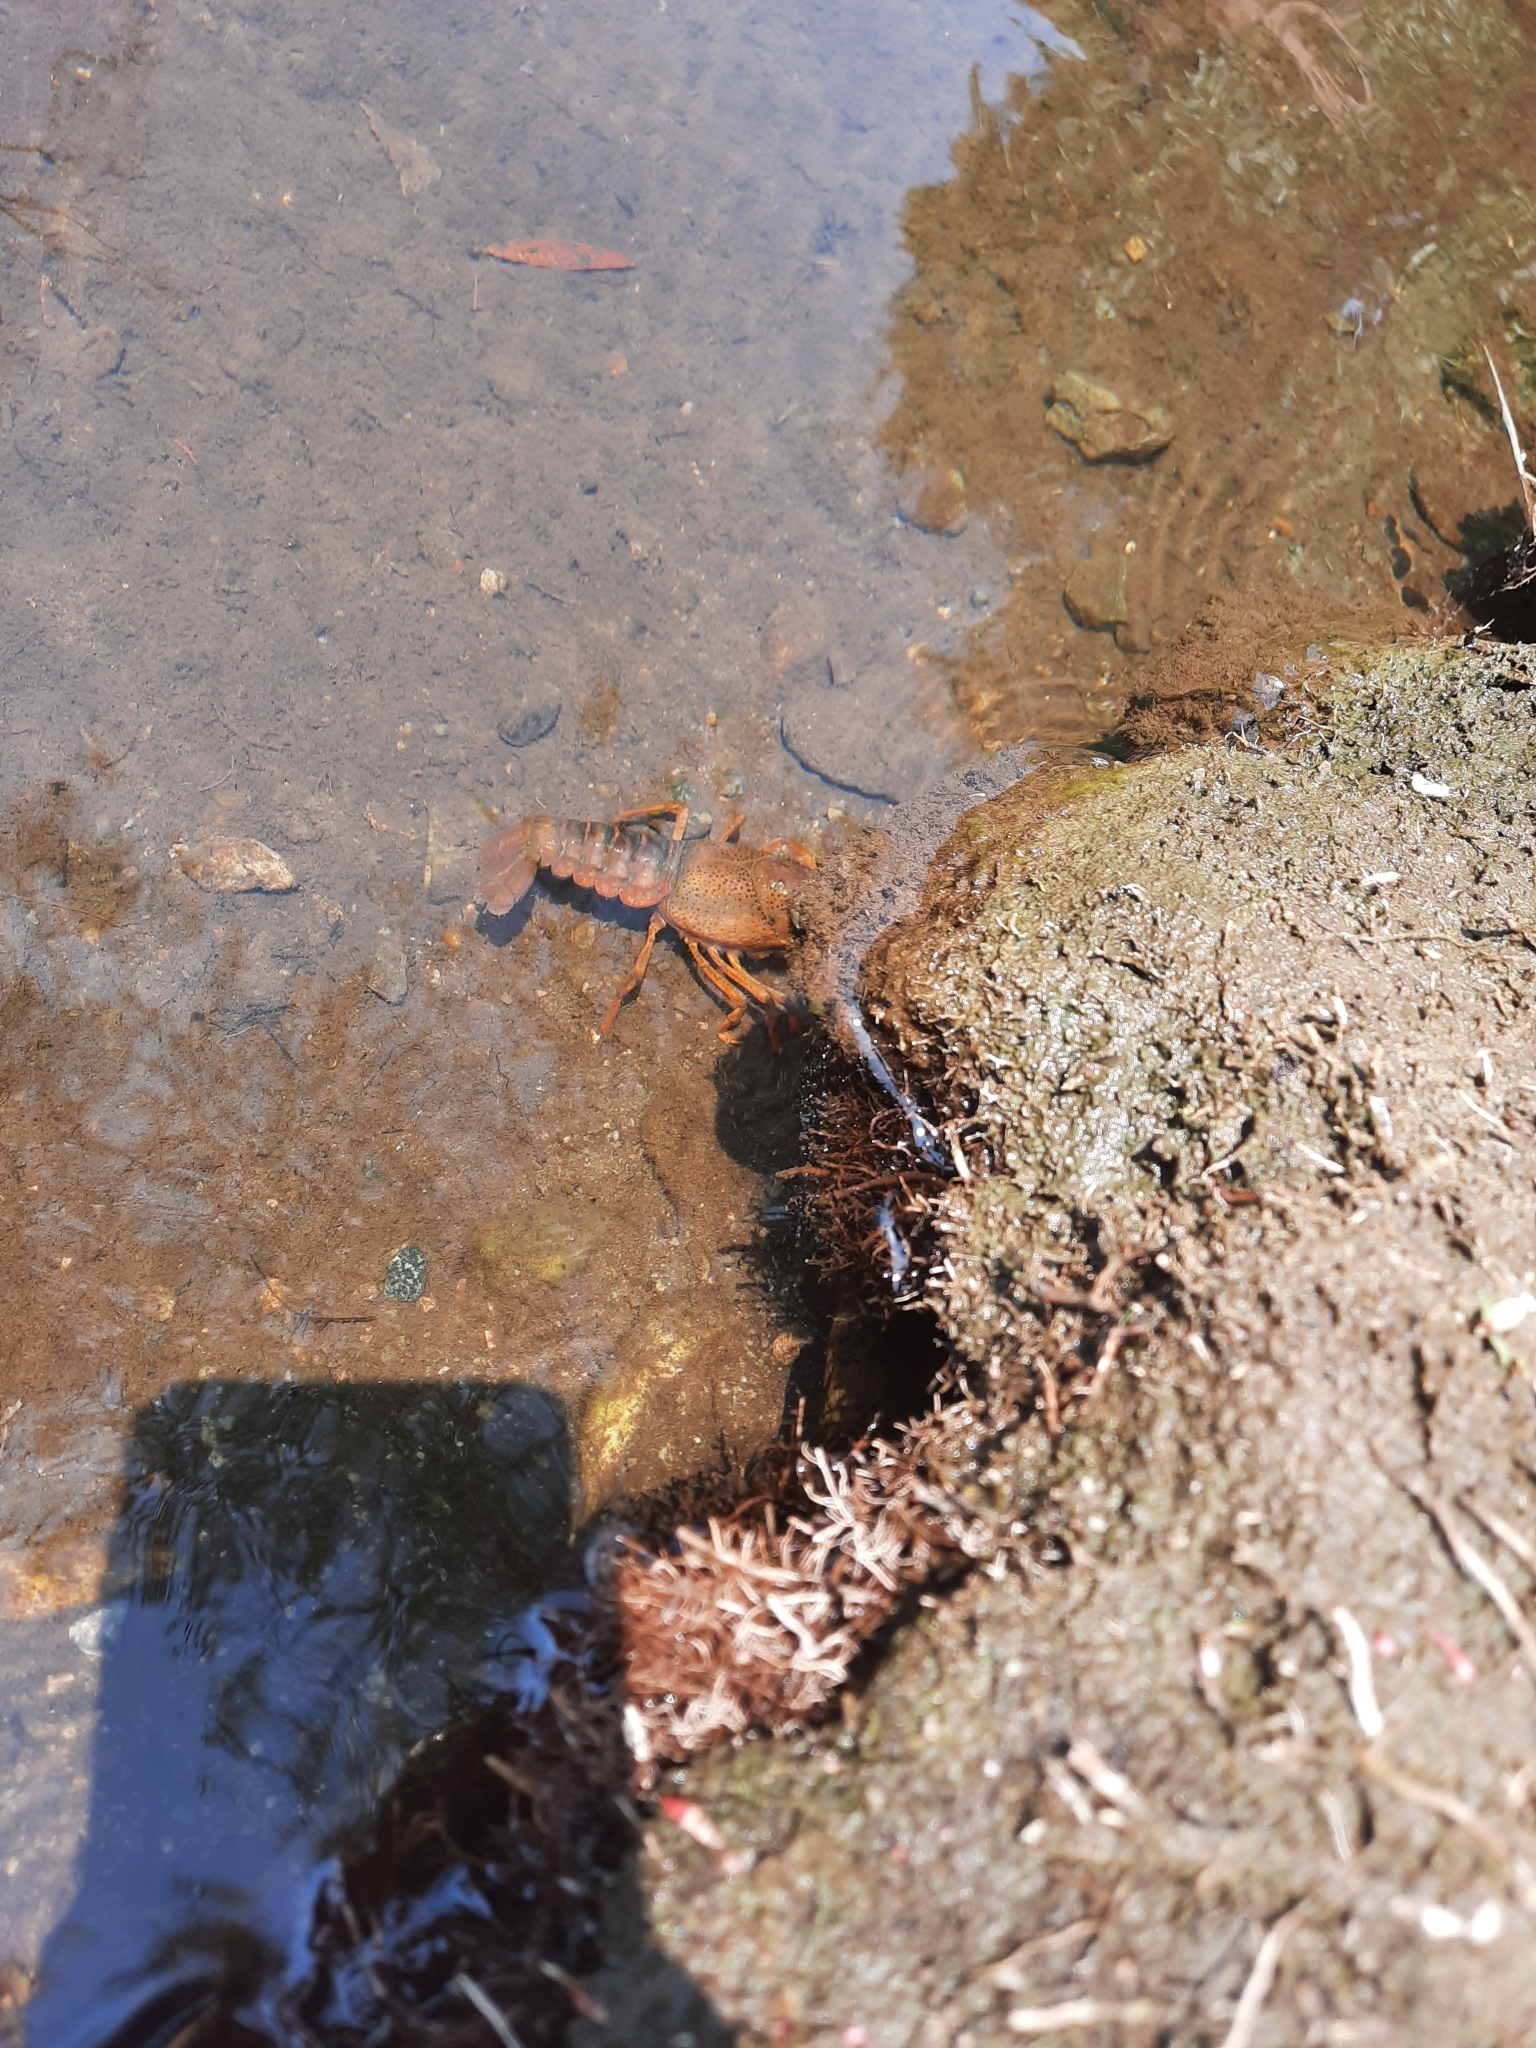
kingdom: Animalia
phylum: Arthropoda
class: Malacostraca
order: Decapoda
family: Cambaridae
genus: Procambarus
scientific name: Procambarus clarkii
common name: Red swamp crayfish
